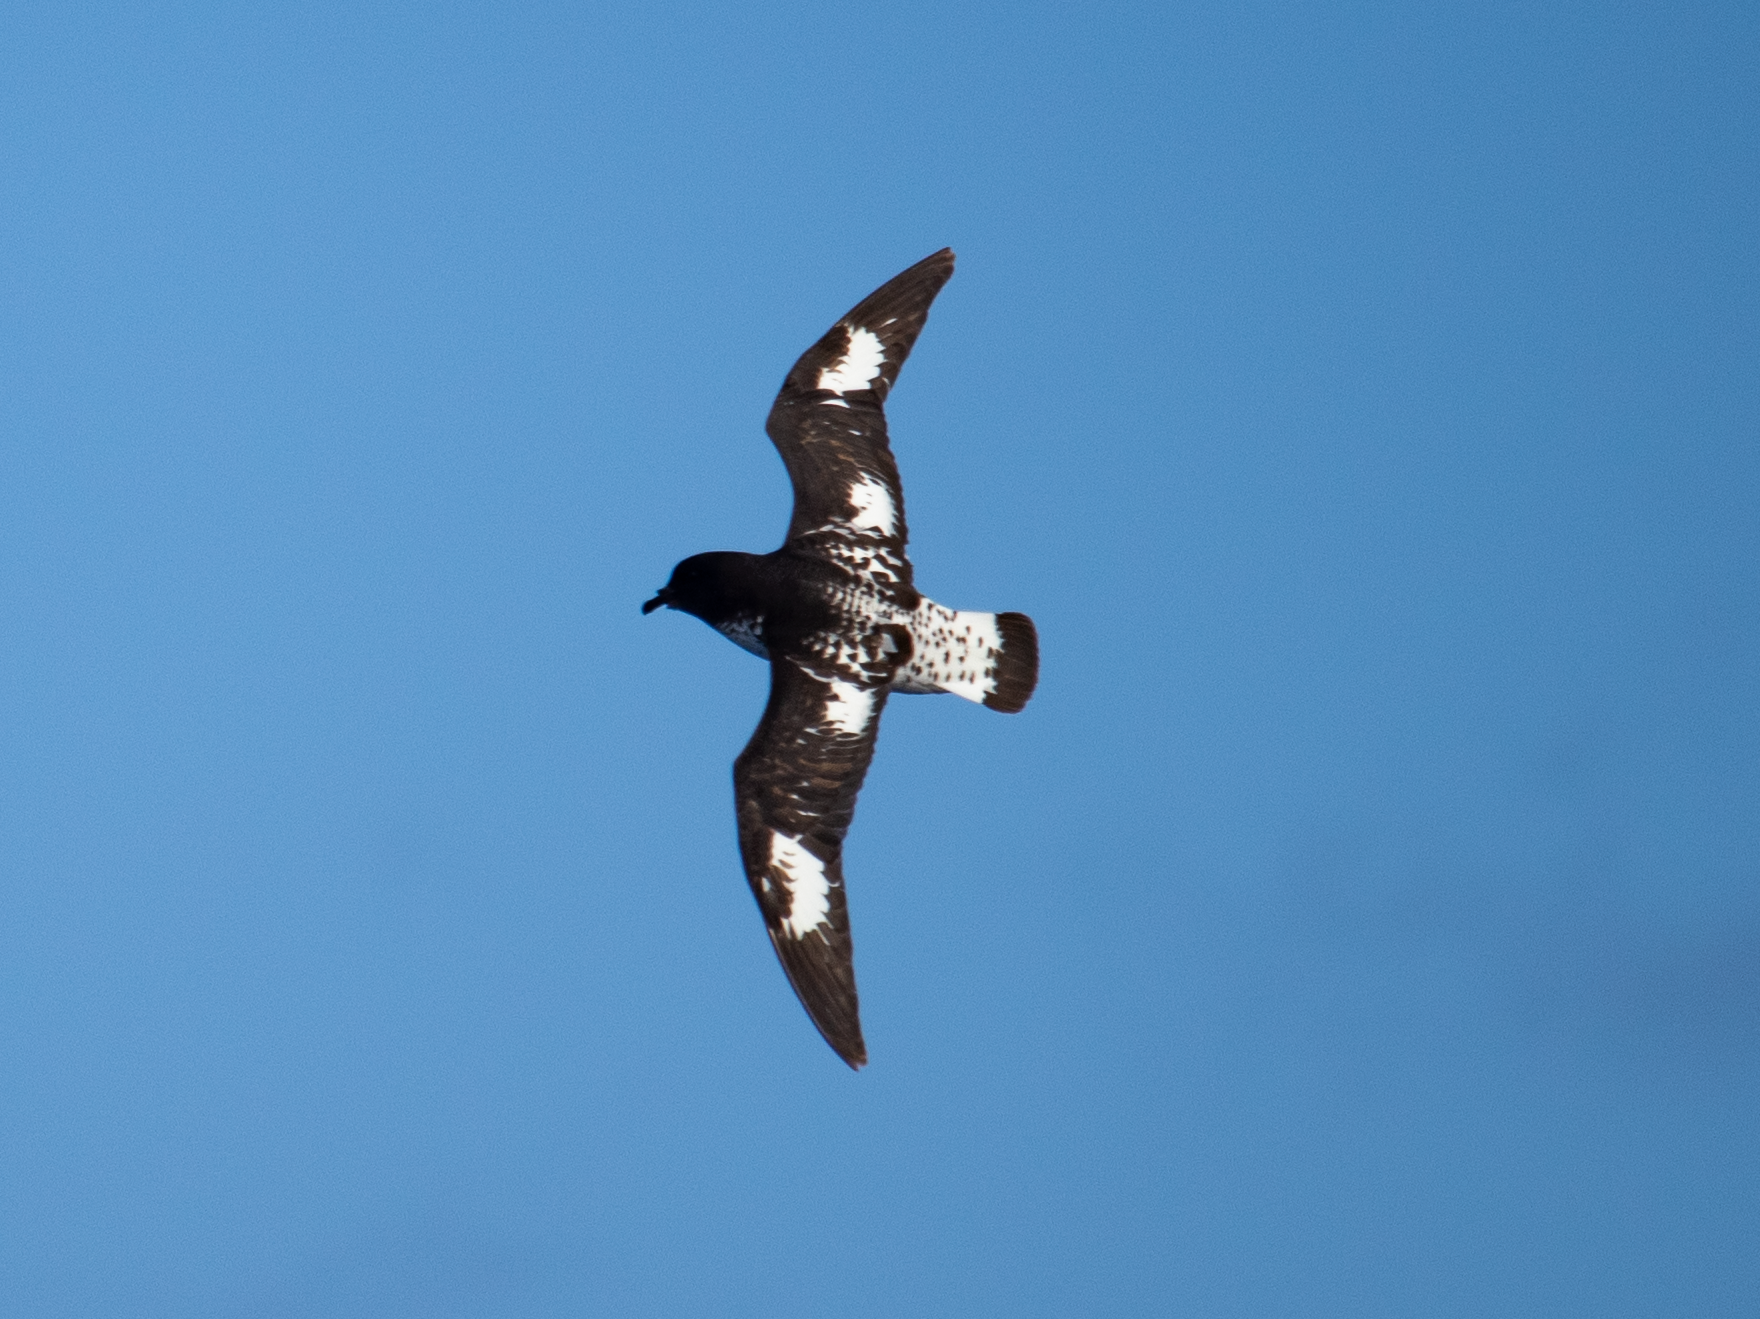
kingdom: Animalia
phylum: Chordata
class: Aves
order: Procellariiformes
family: Procellariidae
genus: Daption
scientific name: Daption capense
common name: Cape petrel
